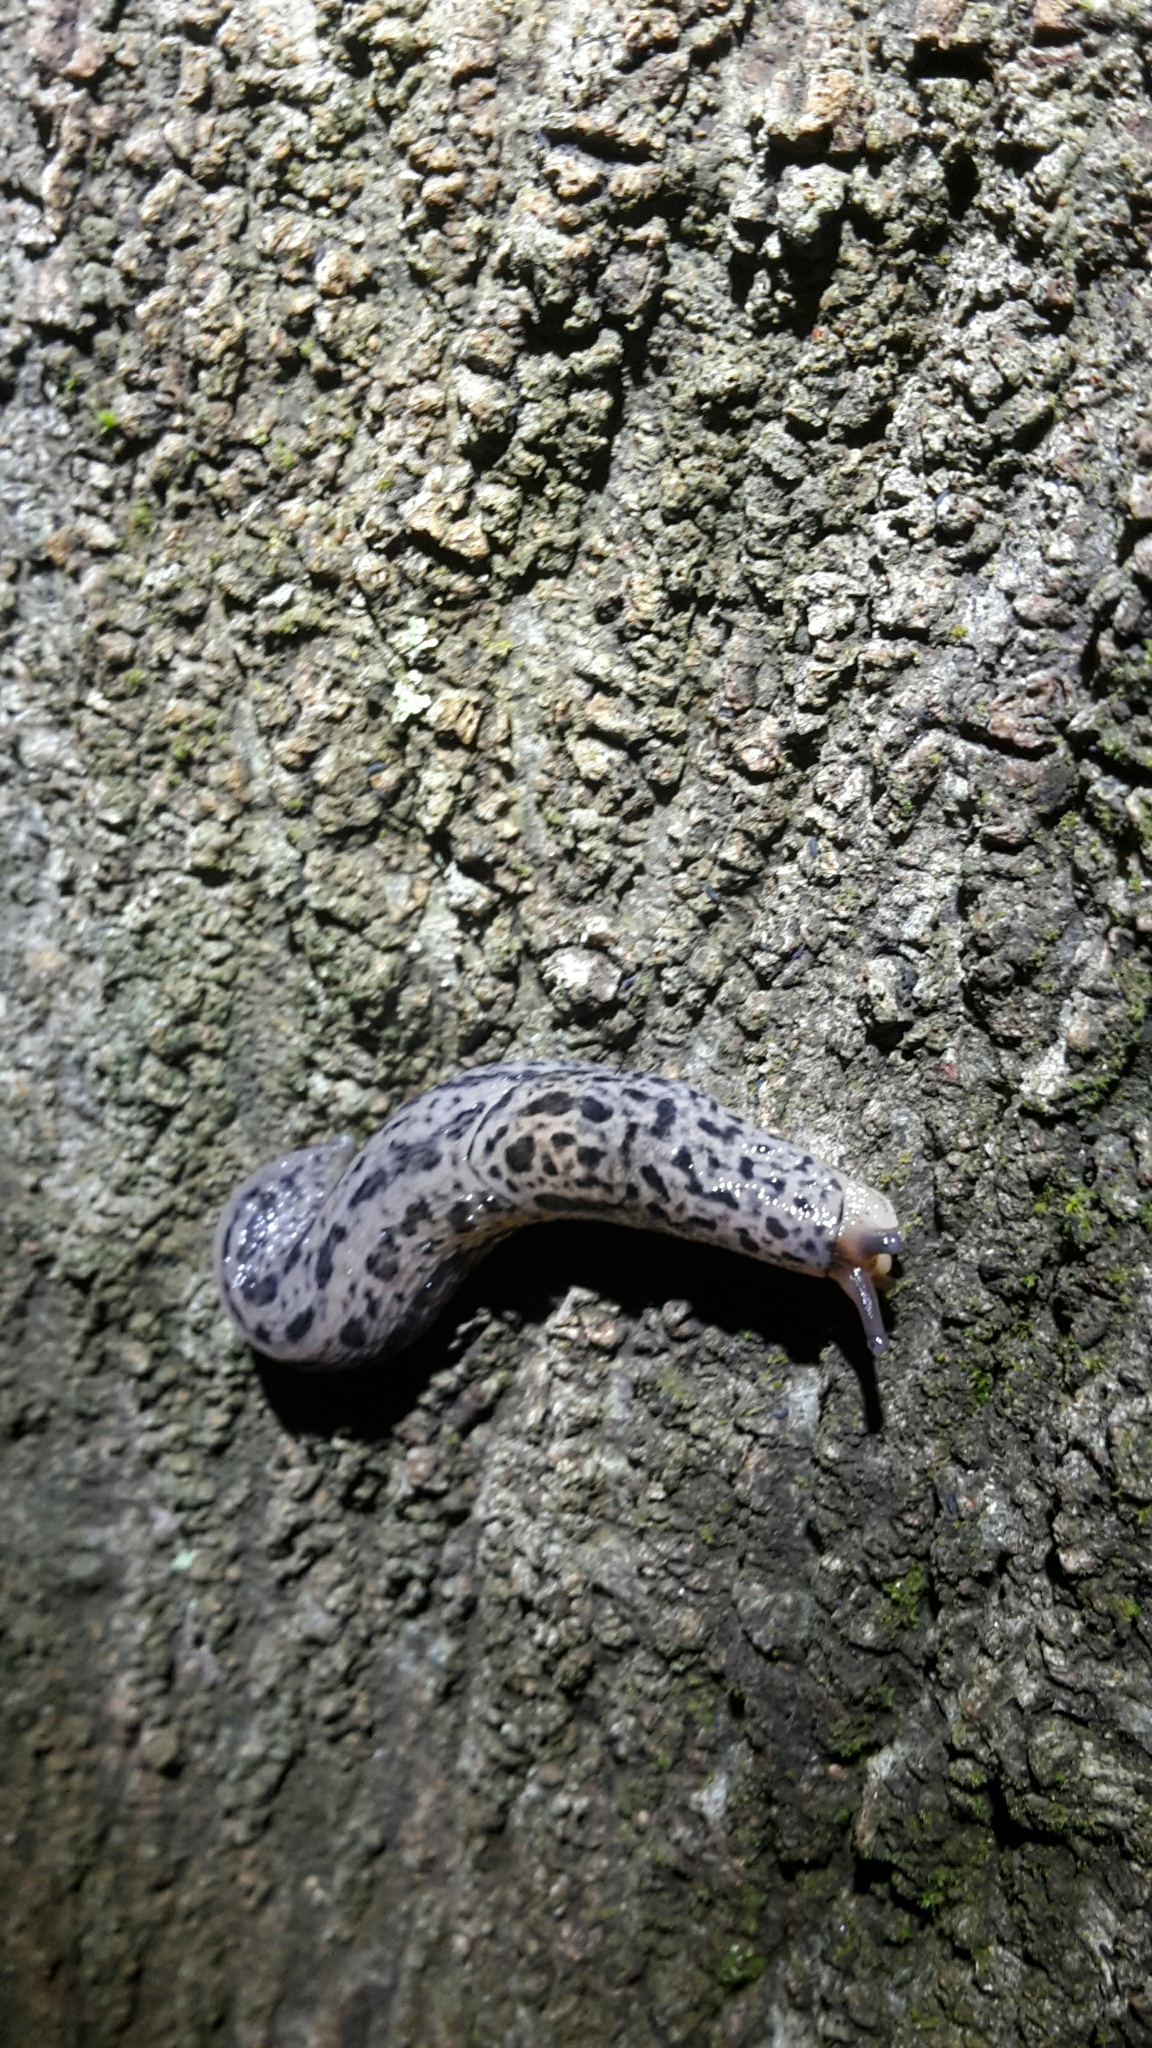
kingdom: Animalia
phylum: Mollusca
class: Gastropoda
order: Stylommatophora
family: Limacidae
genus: Limax
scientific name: Limax maximus
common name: Great grey slug
